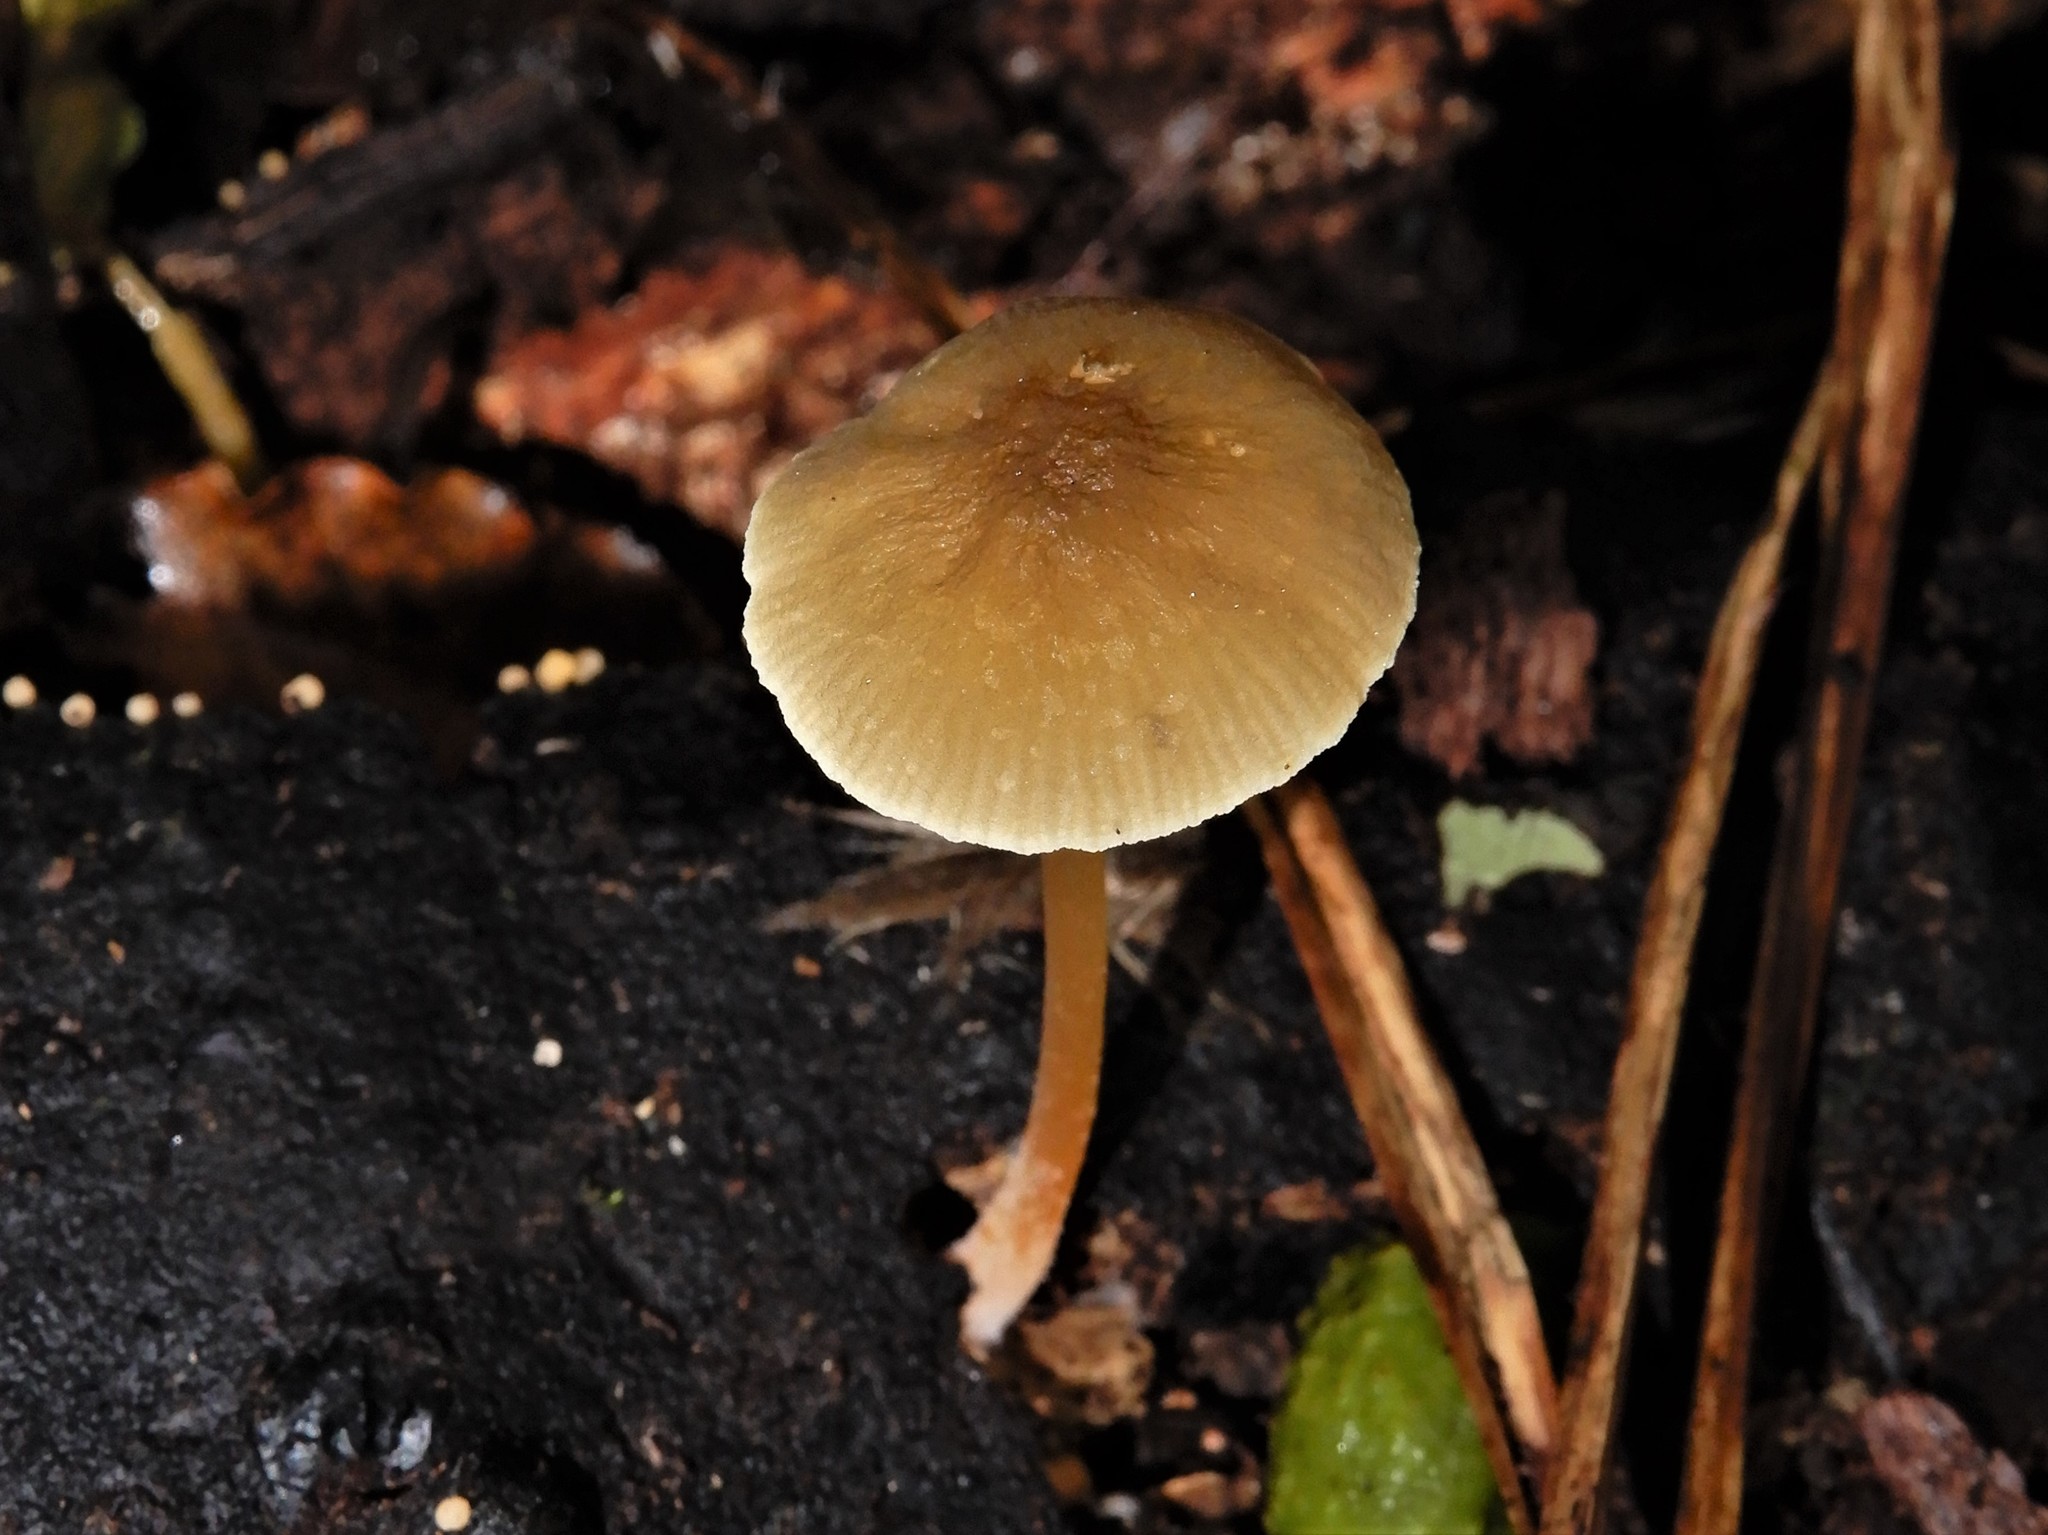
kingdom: Fungi
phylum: Basidiomycota
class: Agaricomycetes
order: Agaricales
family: Pluteaceae
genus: Pluteus
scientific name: Pluteus chrysophlebius
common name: Yellow deer mushroom
